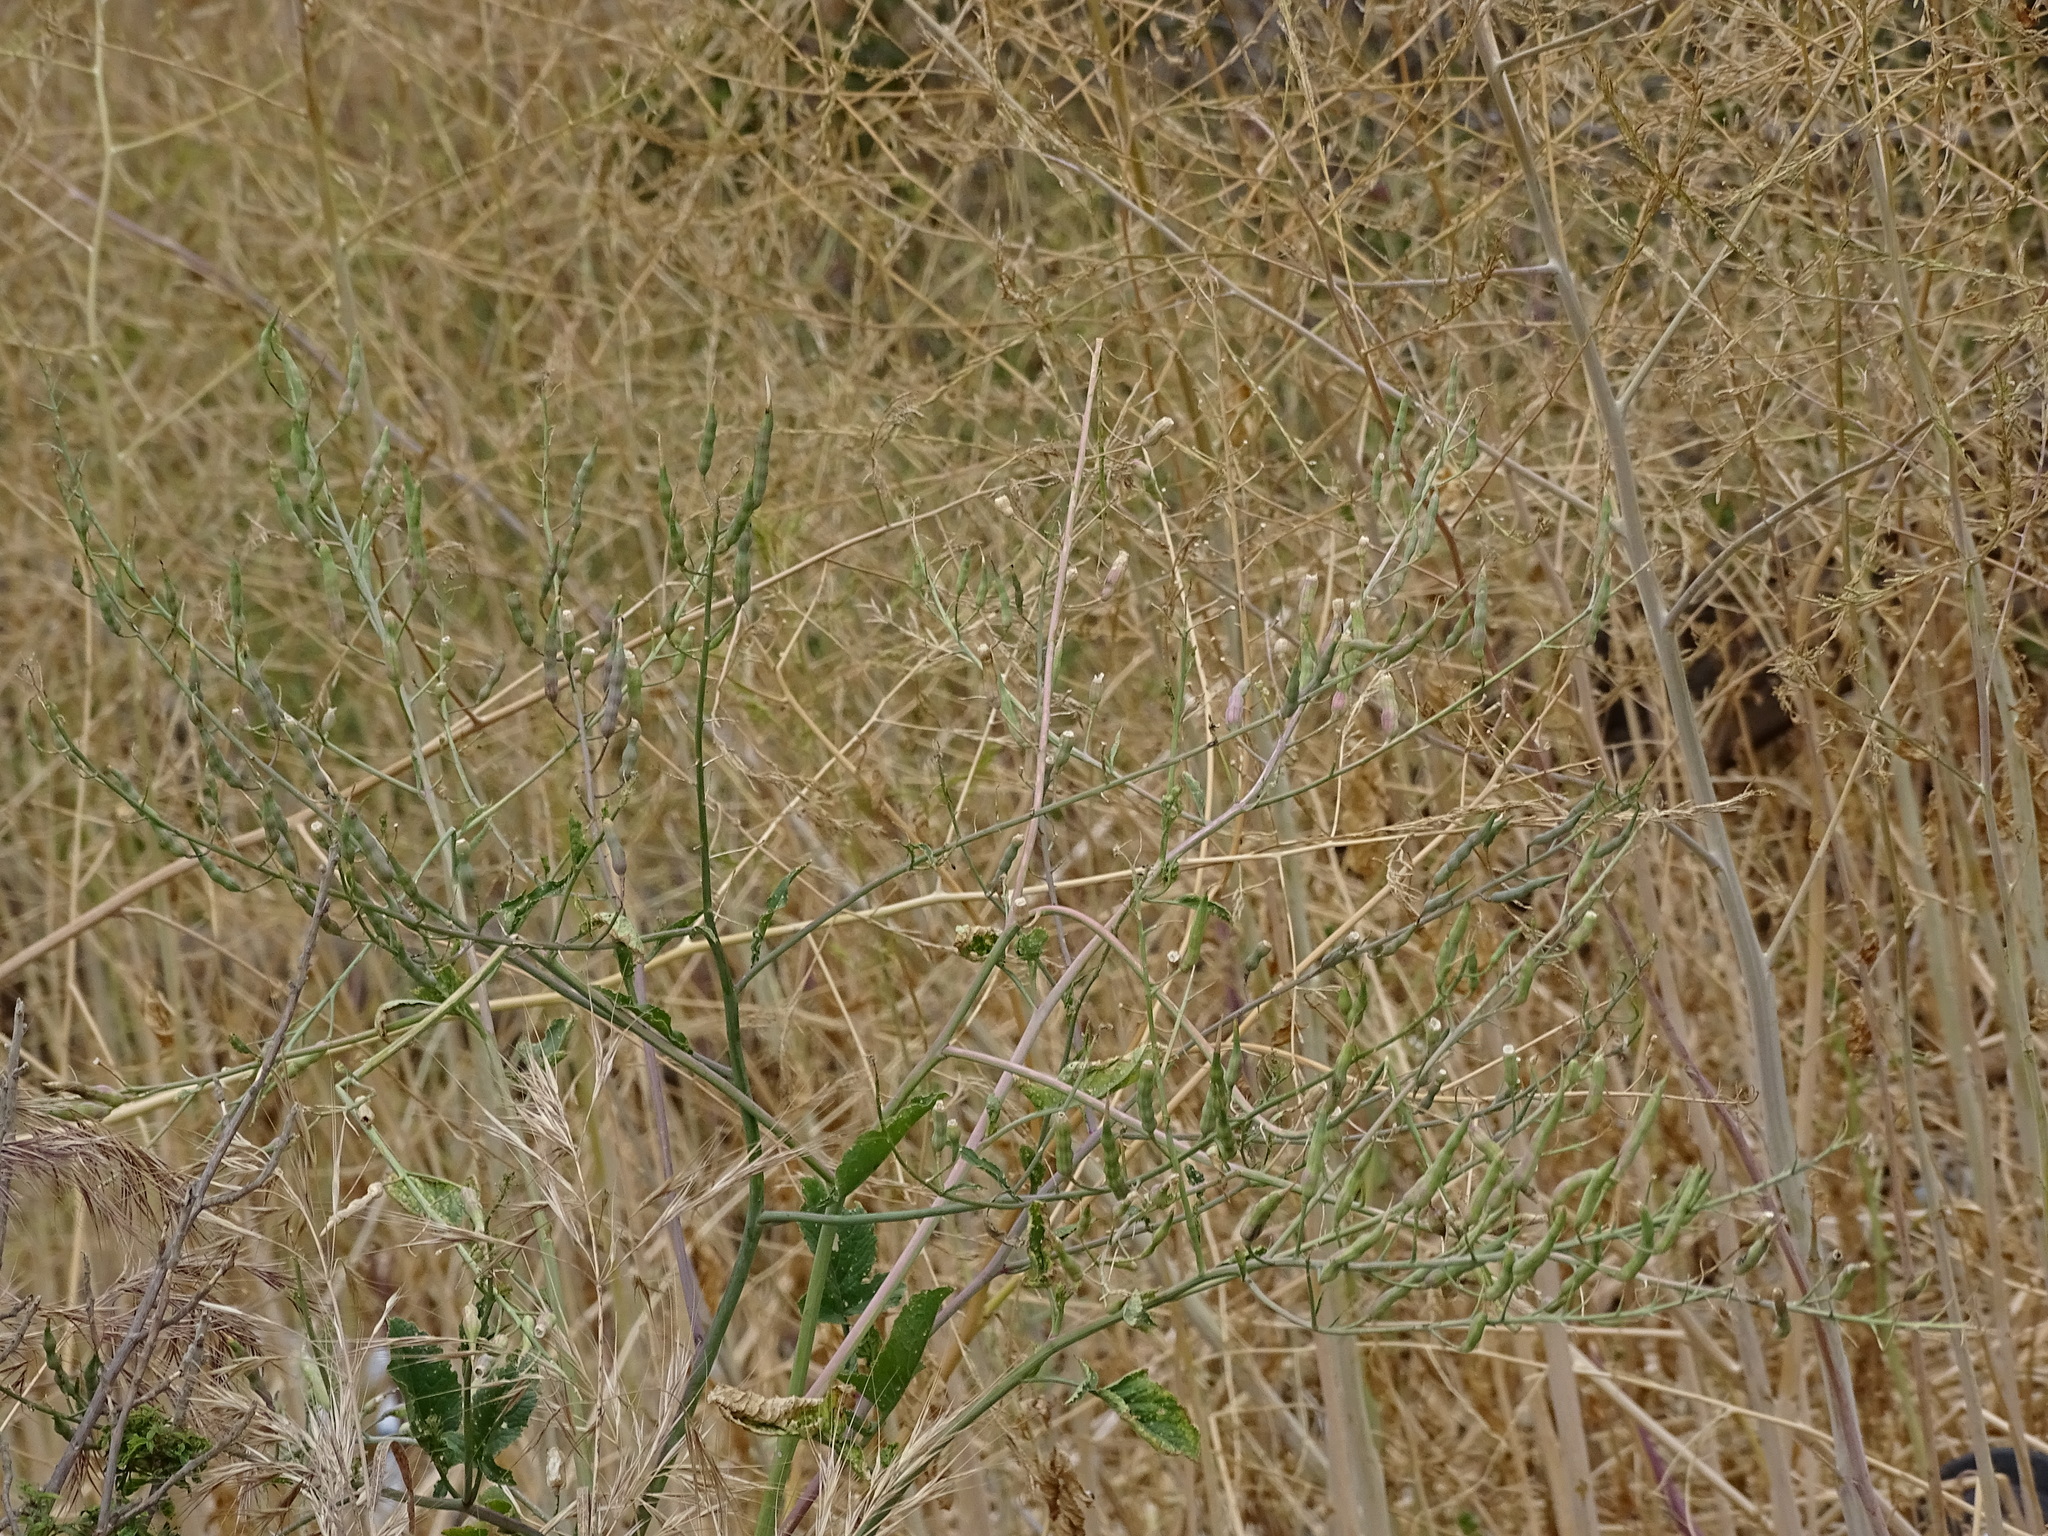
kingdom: Plantae
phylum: Tracheophyta
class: Magnoliopsida
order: Brassicales
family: Brassicaceae
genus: Raphanus
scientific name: Raphanus sativus
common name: Cultivated radish
